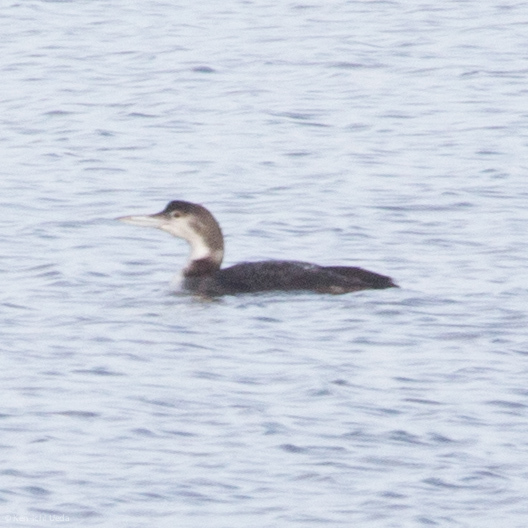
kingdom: Animalia
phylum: Chordata
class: Aves
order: Gaviiformes
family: Gaviidae
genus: Gavia
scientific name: Gavia immer
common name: Common loon
